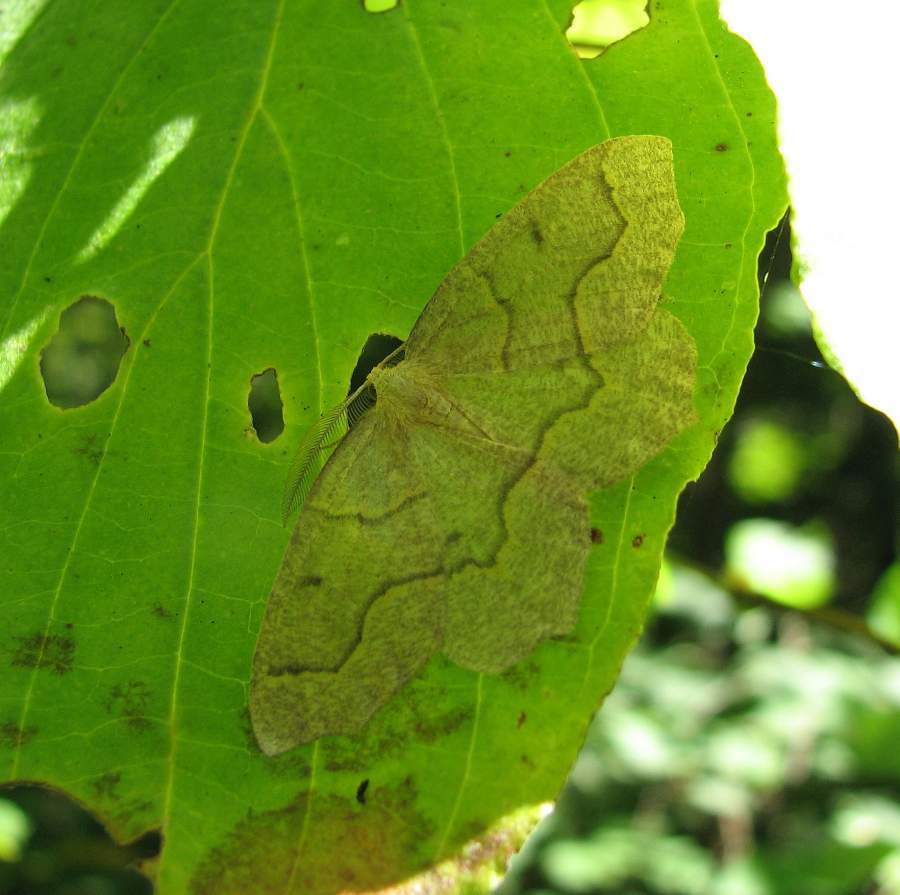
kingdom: Animalia
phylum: Arthropoda
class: Insecta
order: Lepidoptera
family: Geometridae
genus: Lambdina
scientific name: Lambdina fiscellaria
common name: Hemlock looper
